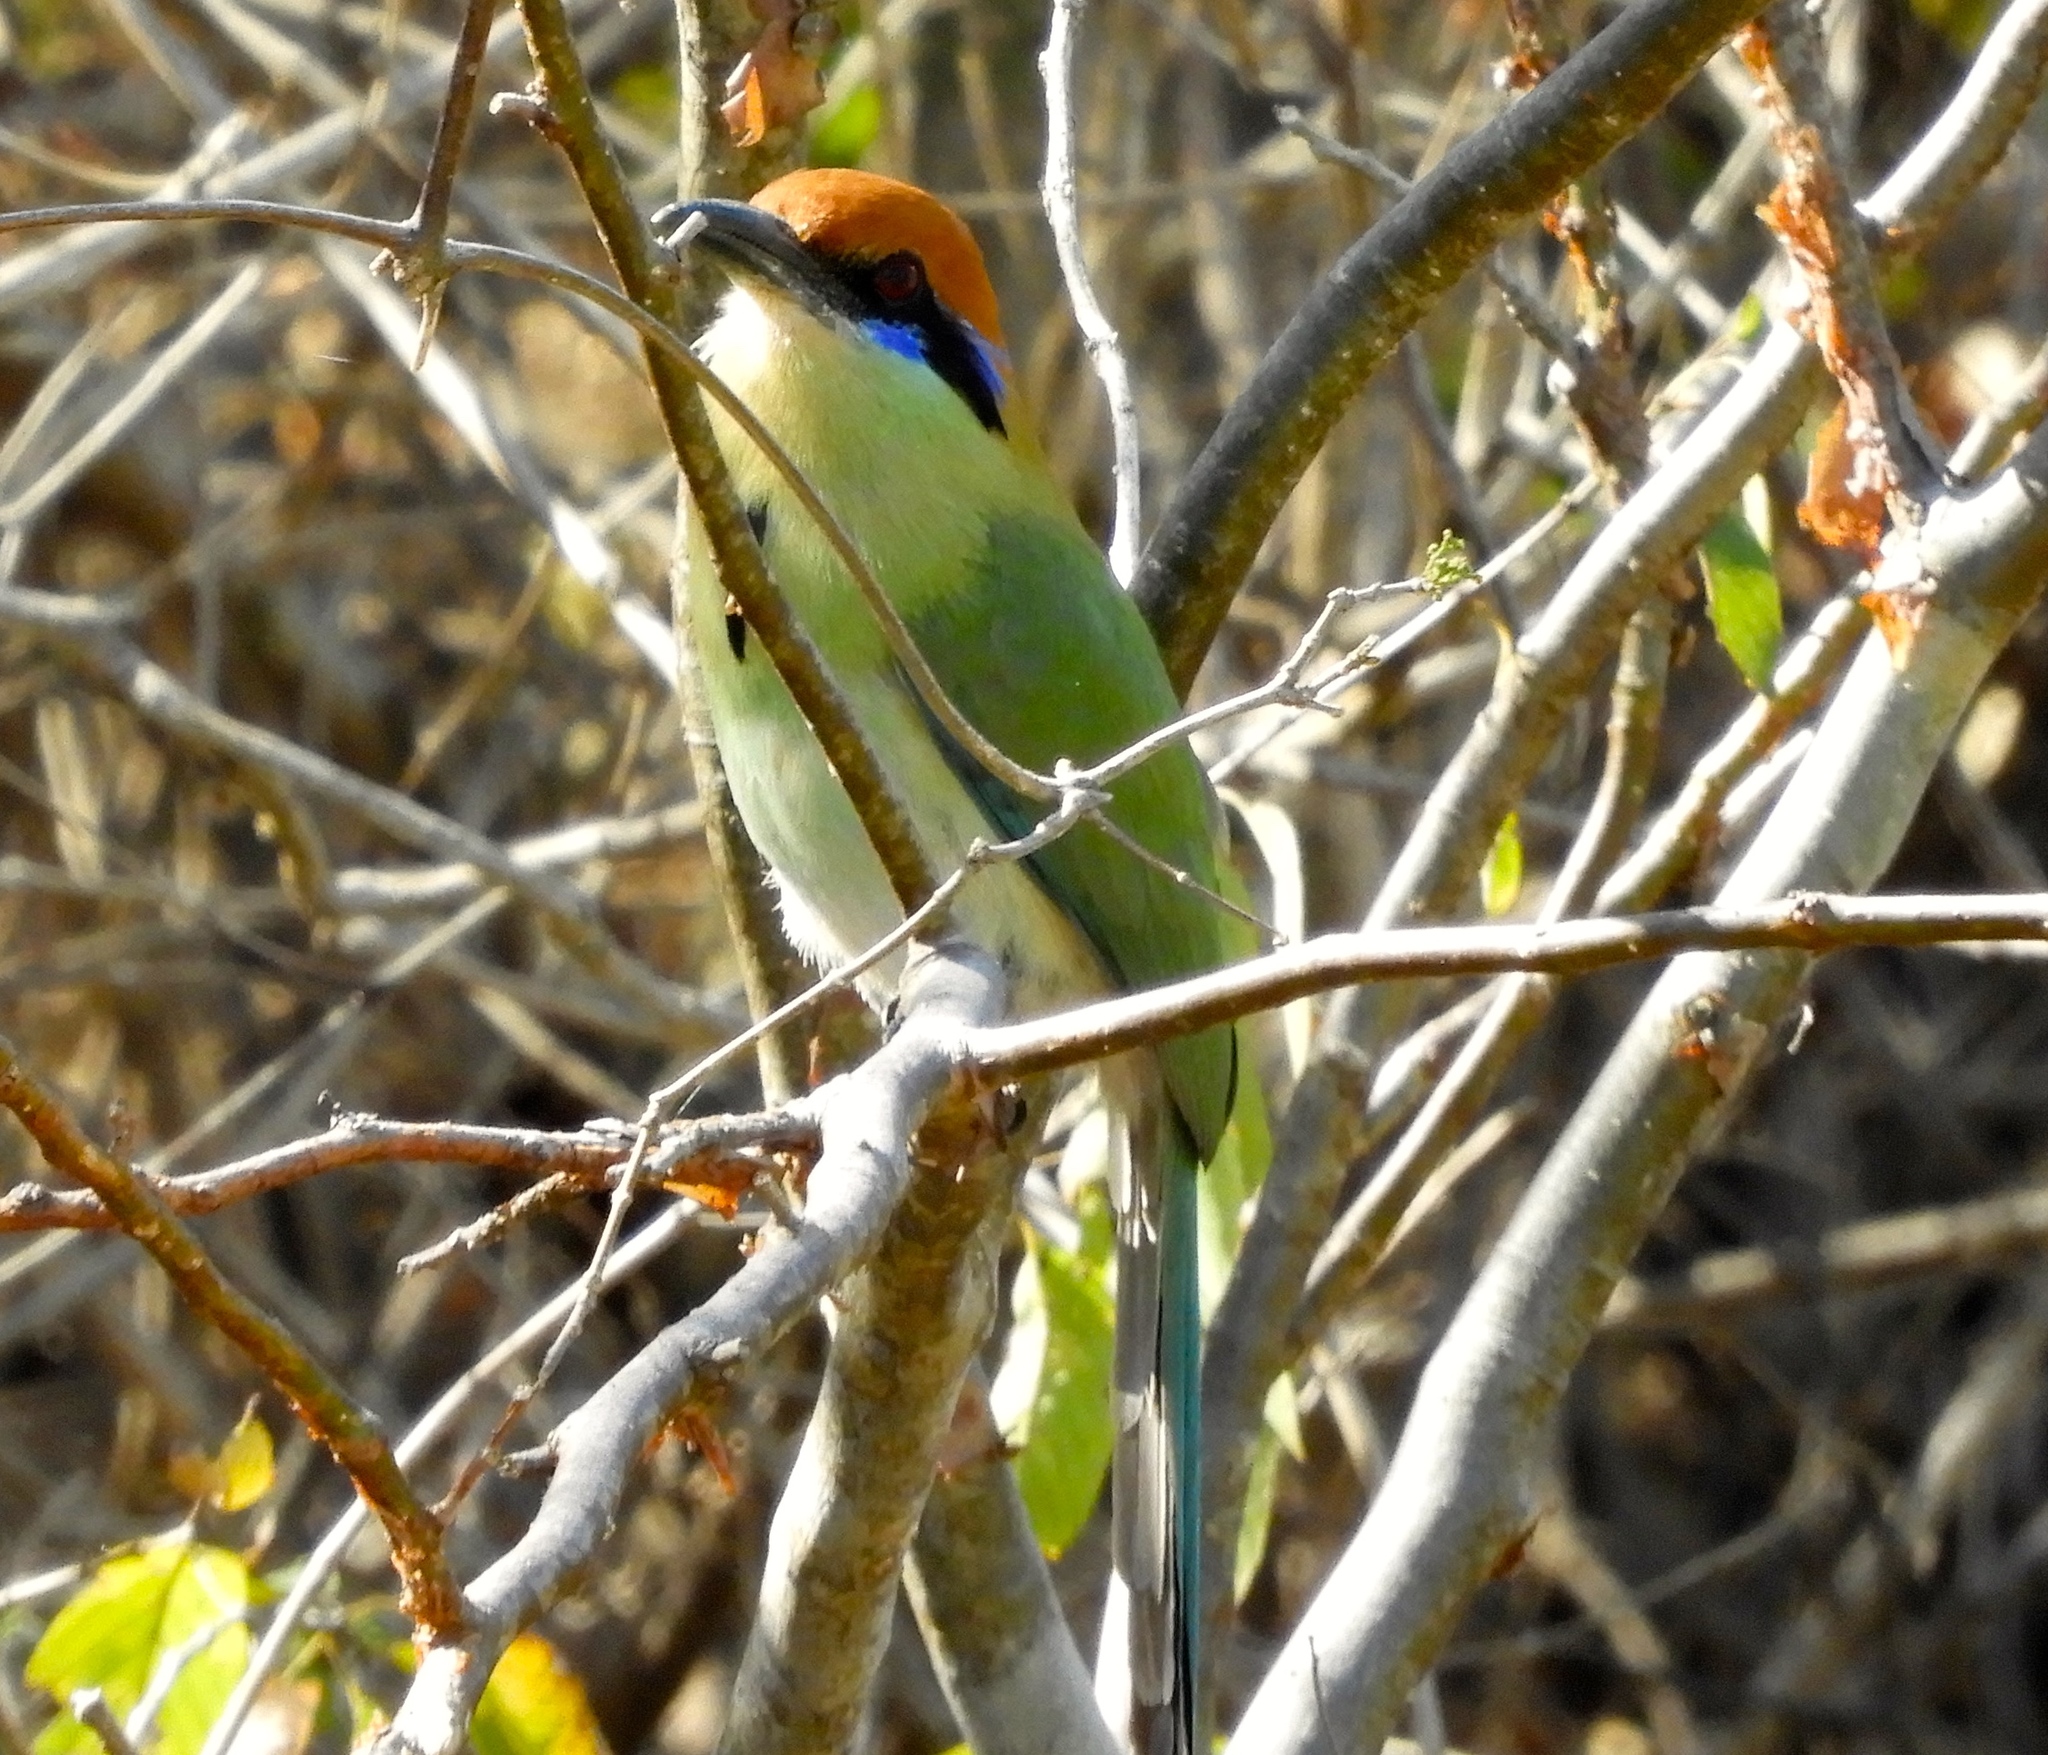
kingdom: Animalia
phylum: Chordata
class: Aves
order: Coraciiformes
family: Momotidae
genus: Momotus
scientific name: Momotus mexicanus
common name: Russet-crowned motmot
